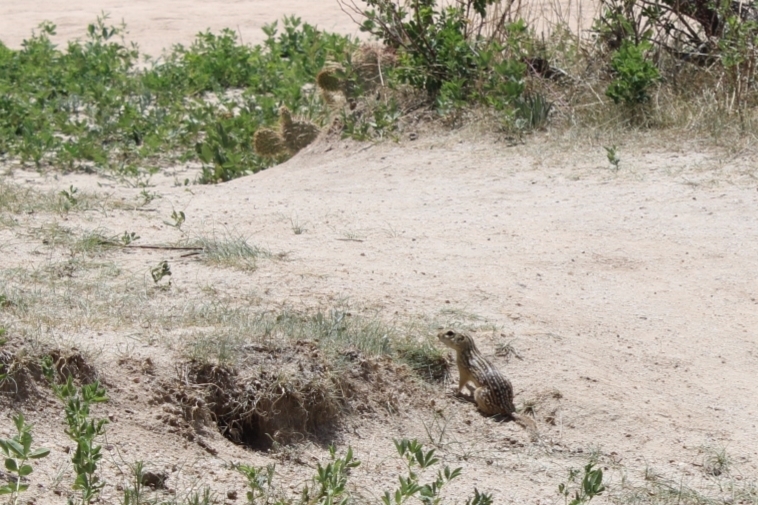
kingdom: Animalia
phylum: Chordata
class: Mammalia
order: Rodentia
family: Sciuridae
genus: Ictidomys
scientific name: Ictidomys tridecemlineatus
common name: Thirteen-lined ground squirrel
